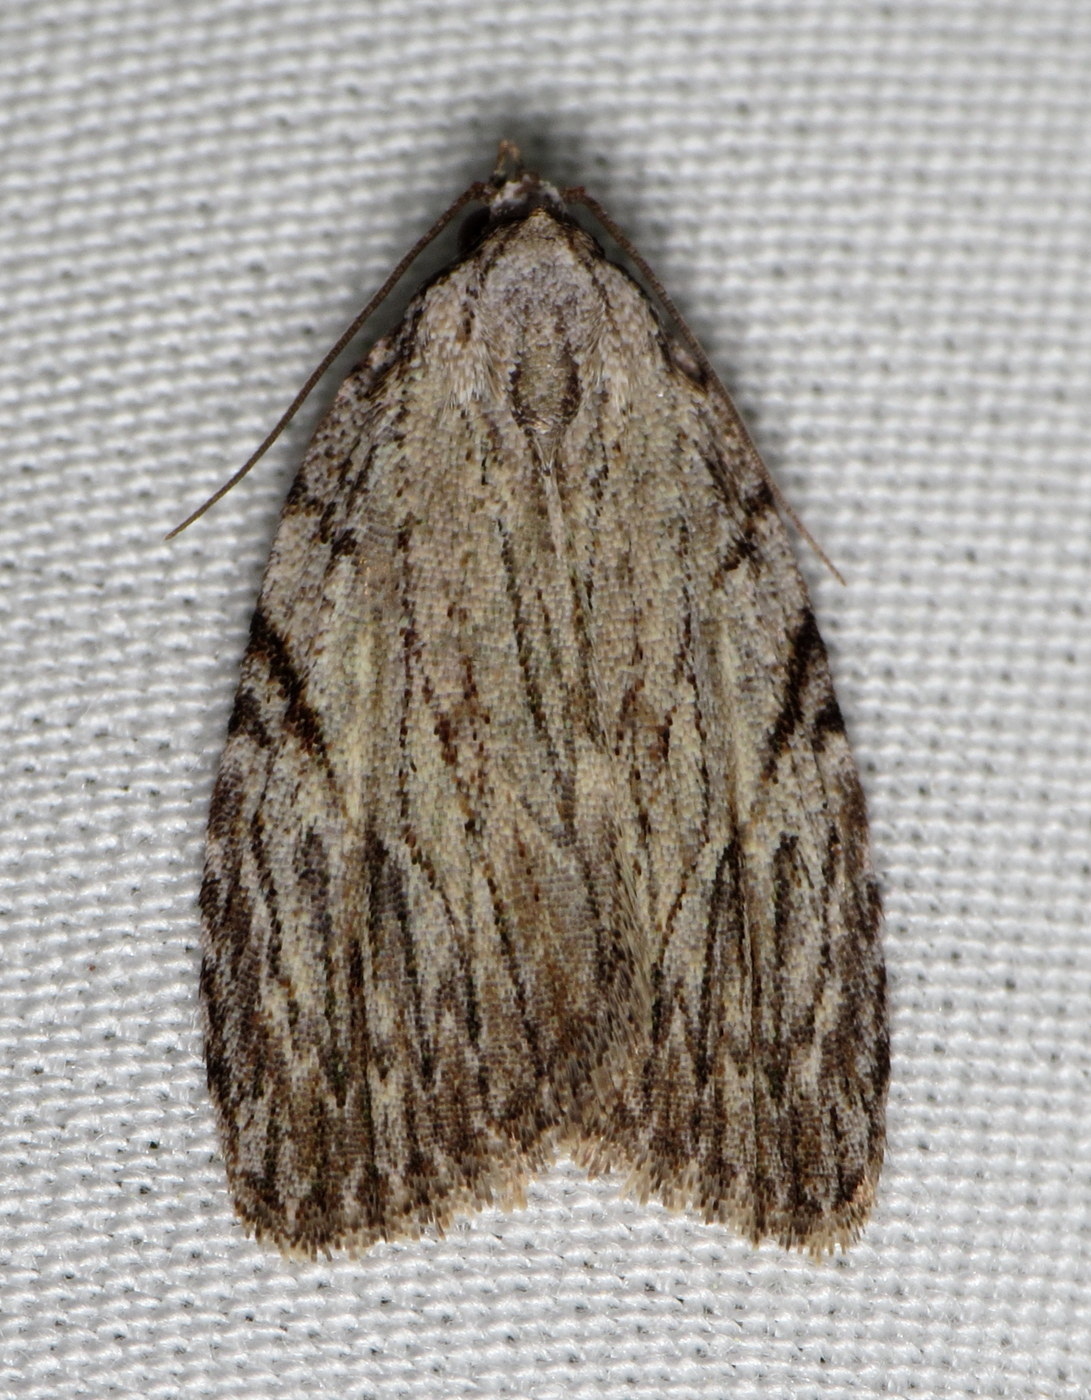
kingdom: Animalia
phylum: Arthropoda
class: Insecta
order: Lepidoptera
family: Noctuidae
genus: Balsa
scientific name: Balsa tristrigella
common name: Three-lined balsa moth
